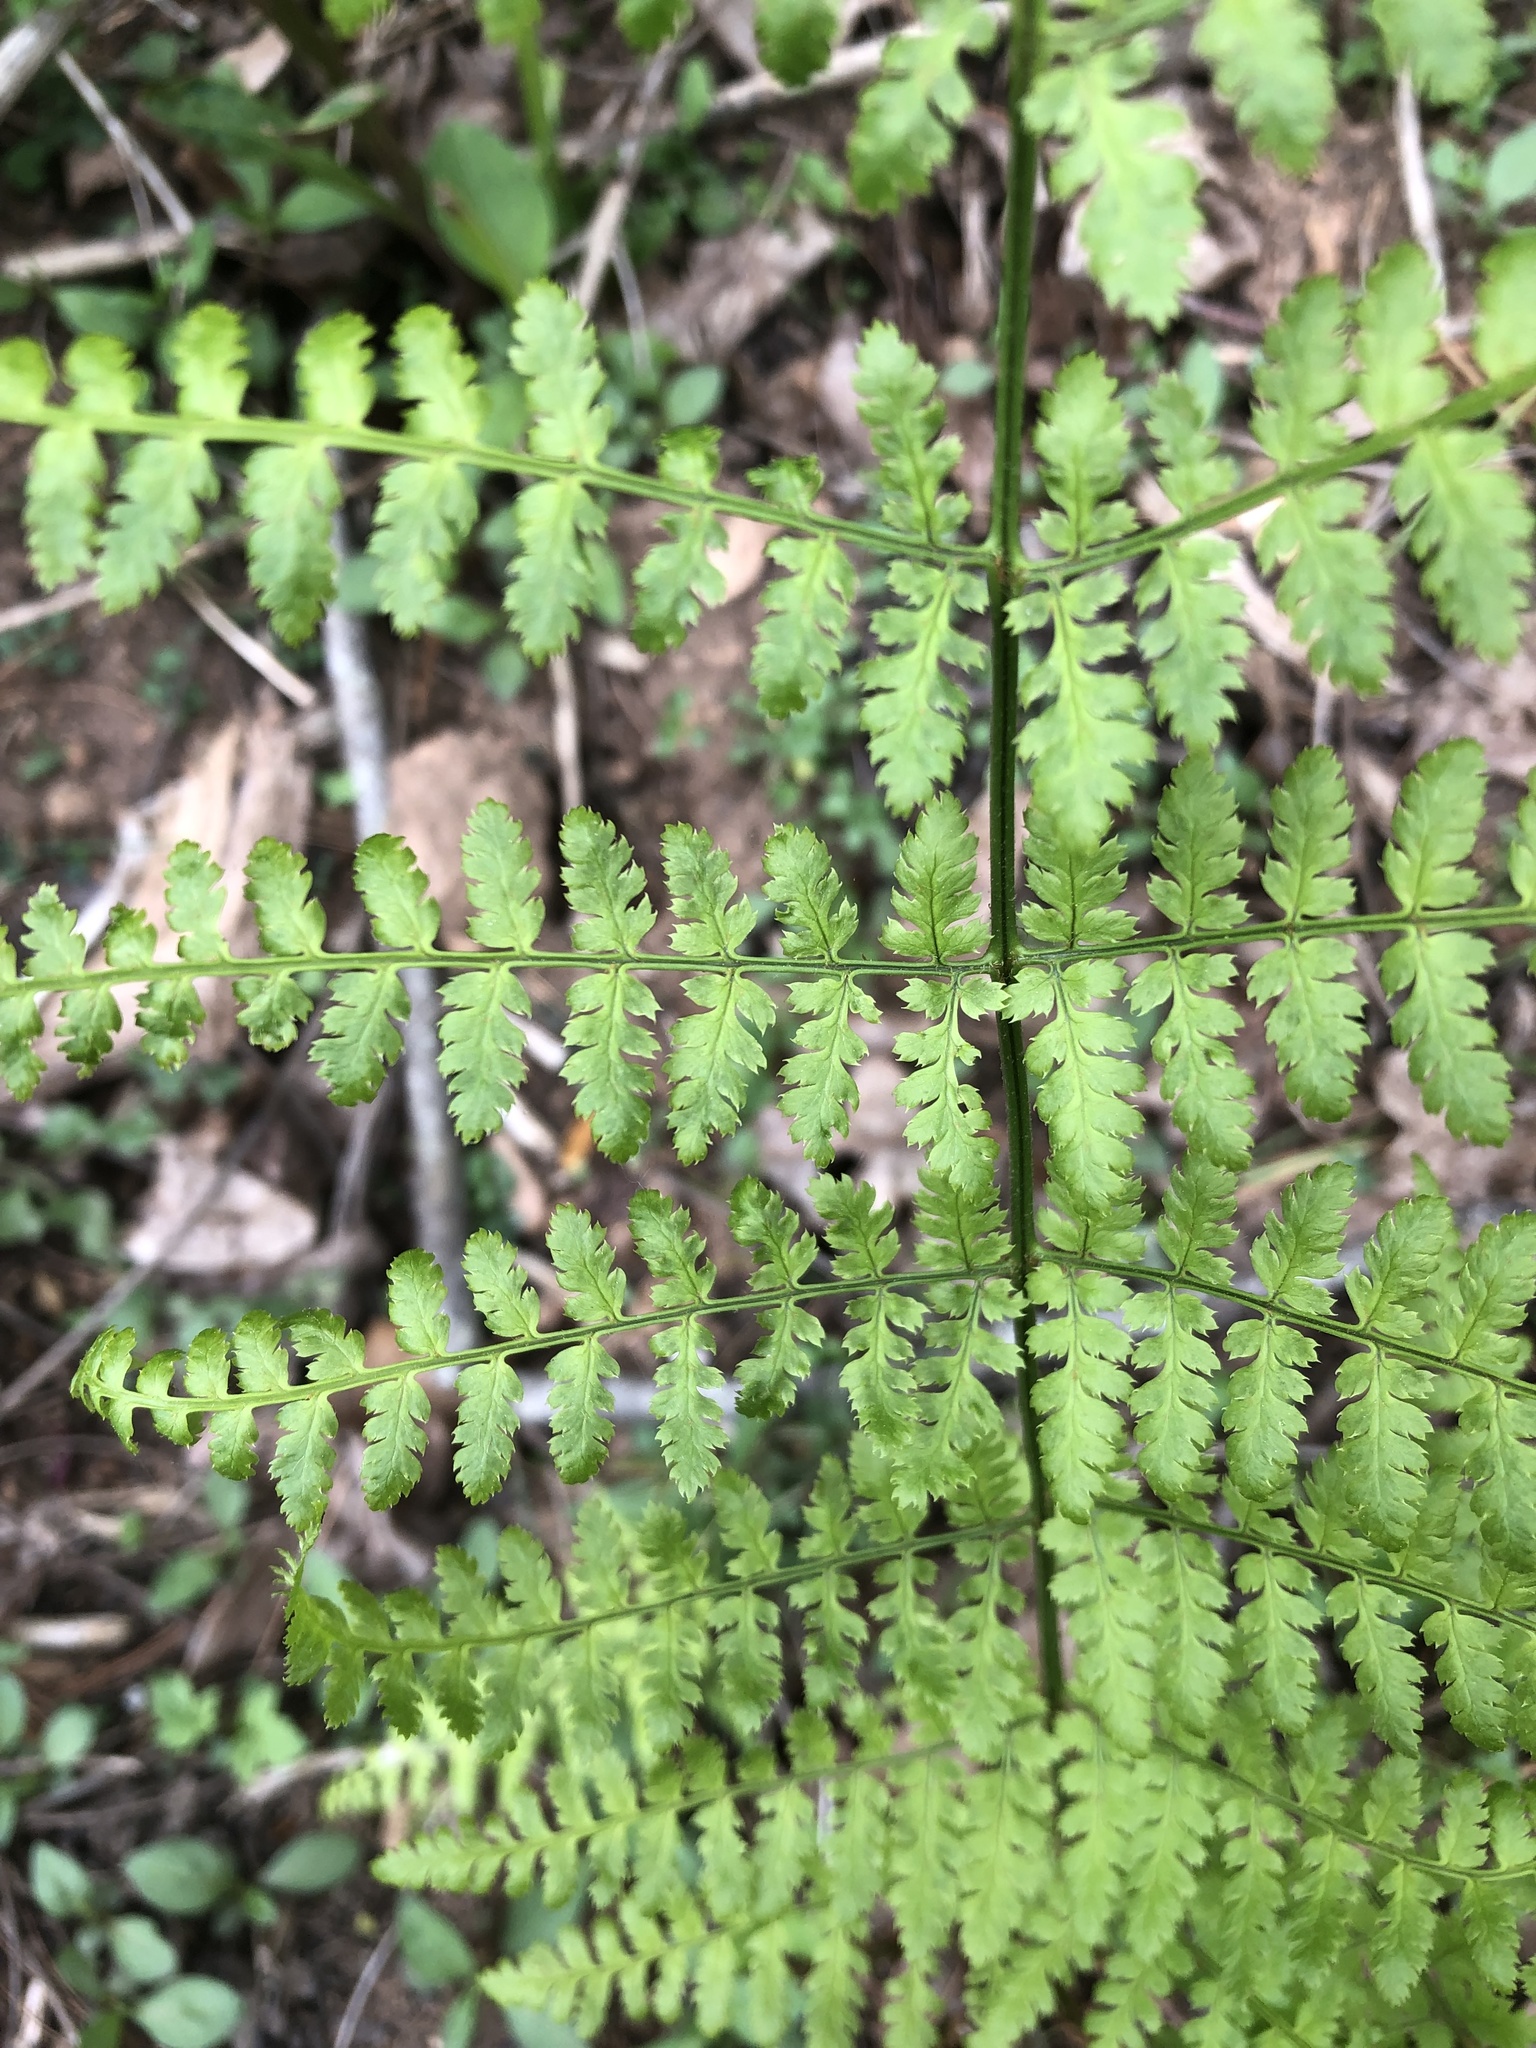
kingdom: Plantae
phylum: Tracheophyta
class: Polypodiopsida
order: Polypodiales
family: Dryopteridaceae
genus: Dryopteris
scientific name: Dryopteris intermedia
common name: Evergreen wood fern
